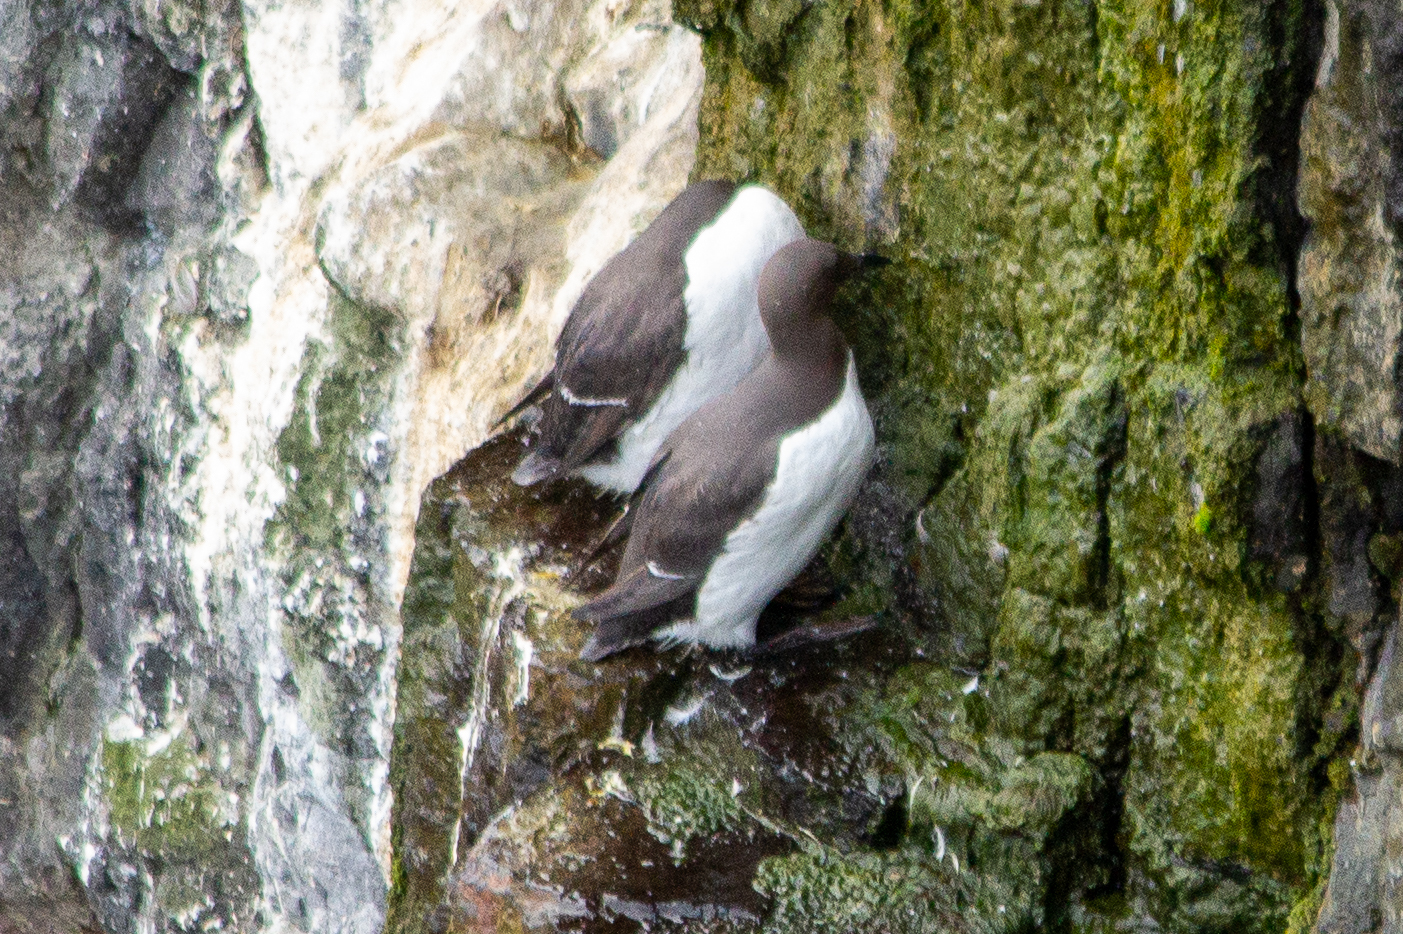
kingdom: Animalia
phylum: Chordata
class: Aves
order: Charadriiformes
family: Alcidae
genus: Uria
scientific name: Uria aalge
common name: Common murre
